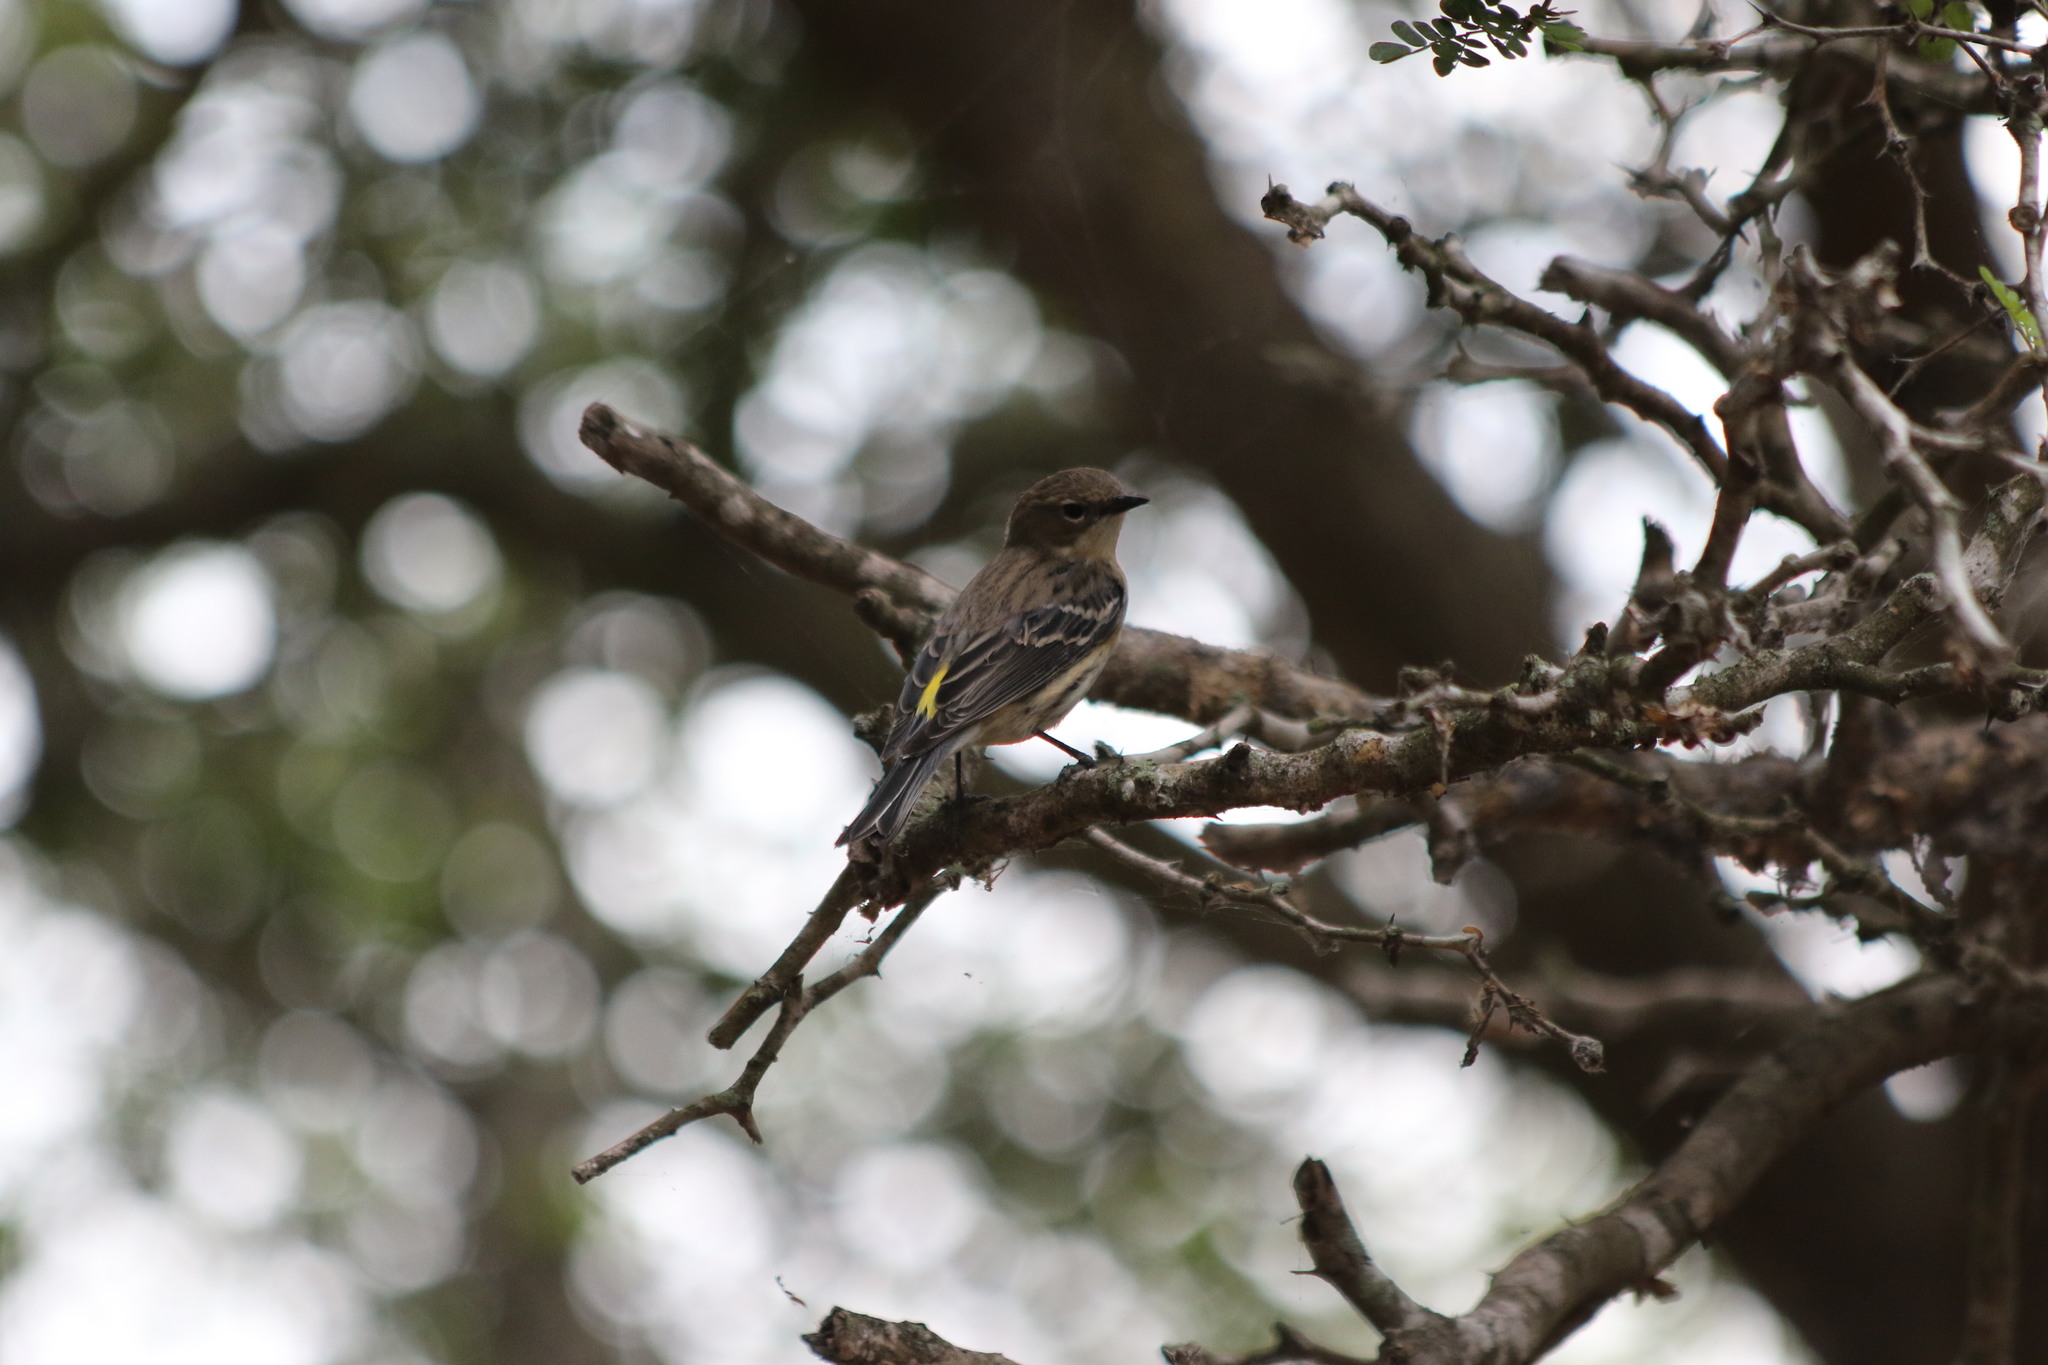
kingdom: Animalia
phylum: Chordata
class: Aves
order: Passeriformes
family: Parulidae
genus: Setophaga
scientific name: Setophaga coronata
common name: Myrtle warbler
